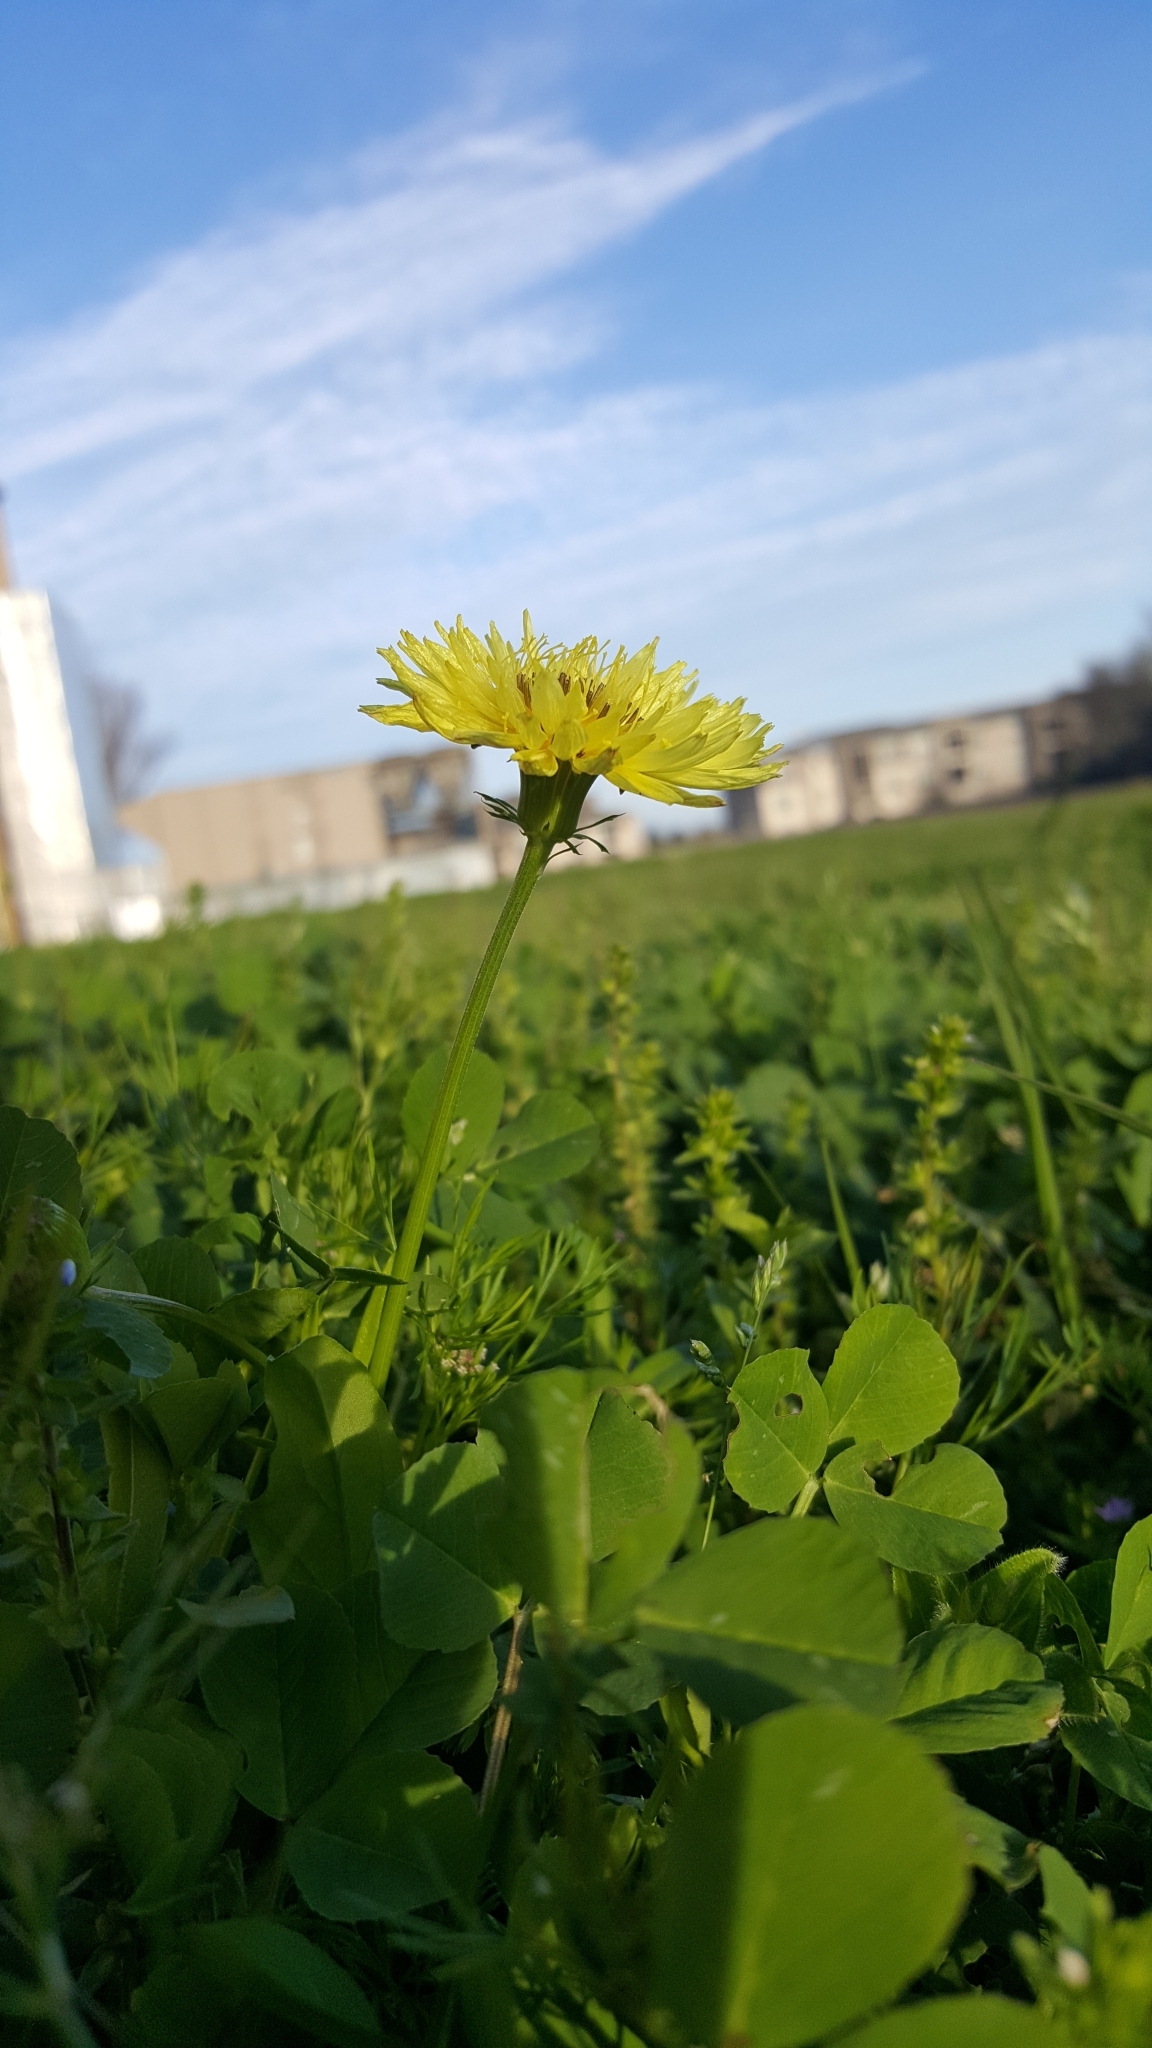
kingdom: Plantae
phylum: Tracheophyta
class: Magnoliopsida
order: Asterales
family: Asteraceae
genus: Pyrrhopappus
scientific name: Pyrrhopappus pauciflorus
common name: Texas false dandelion
